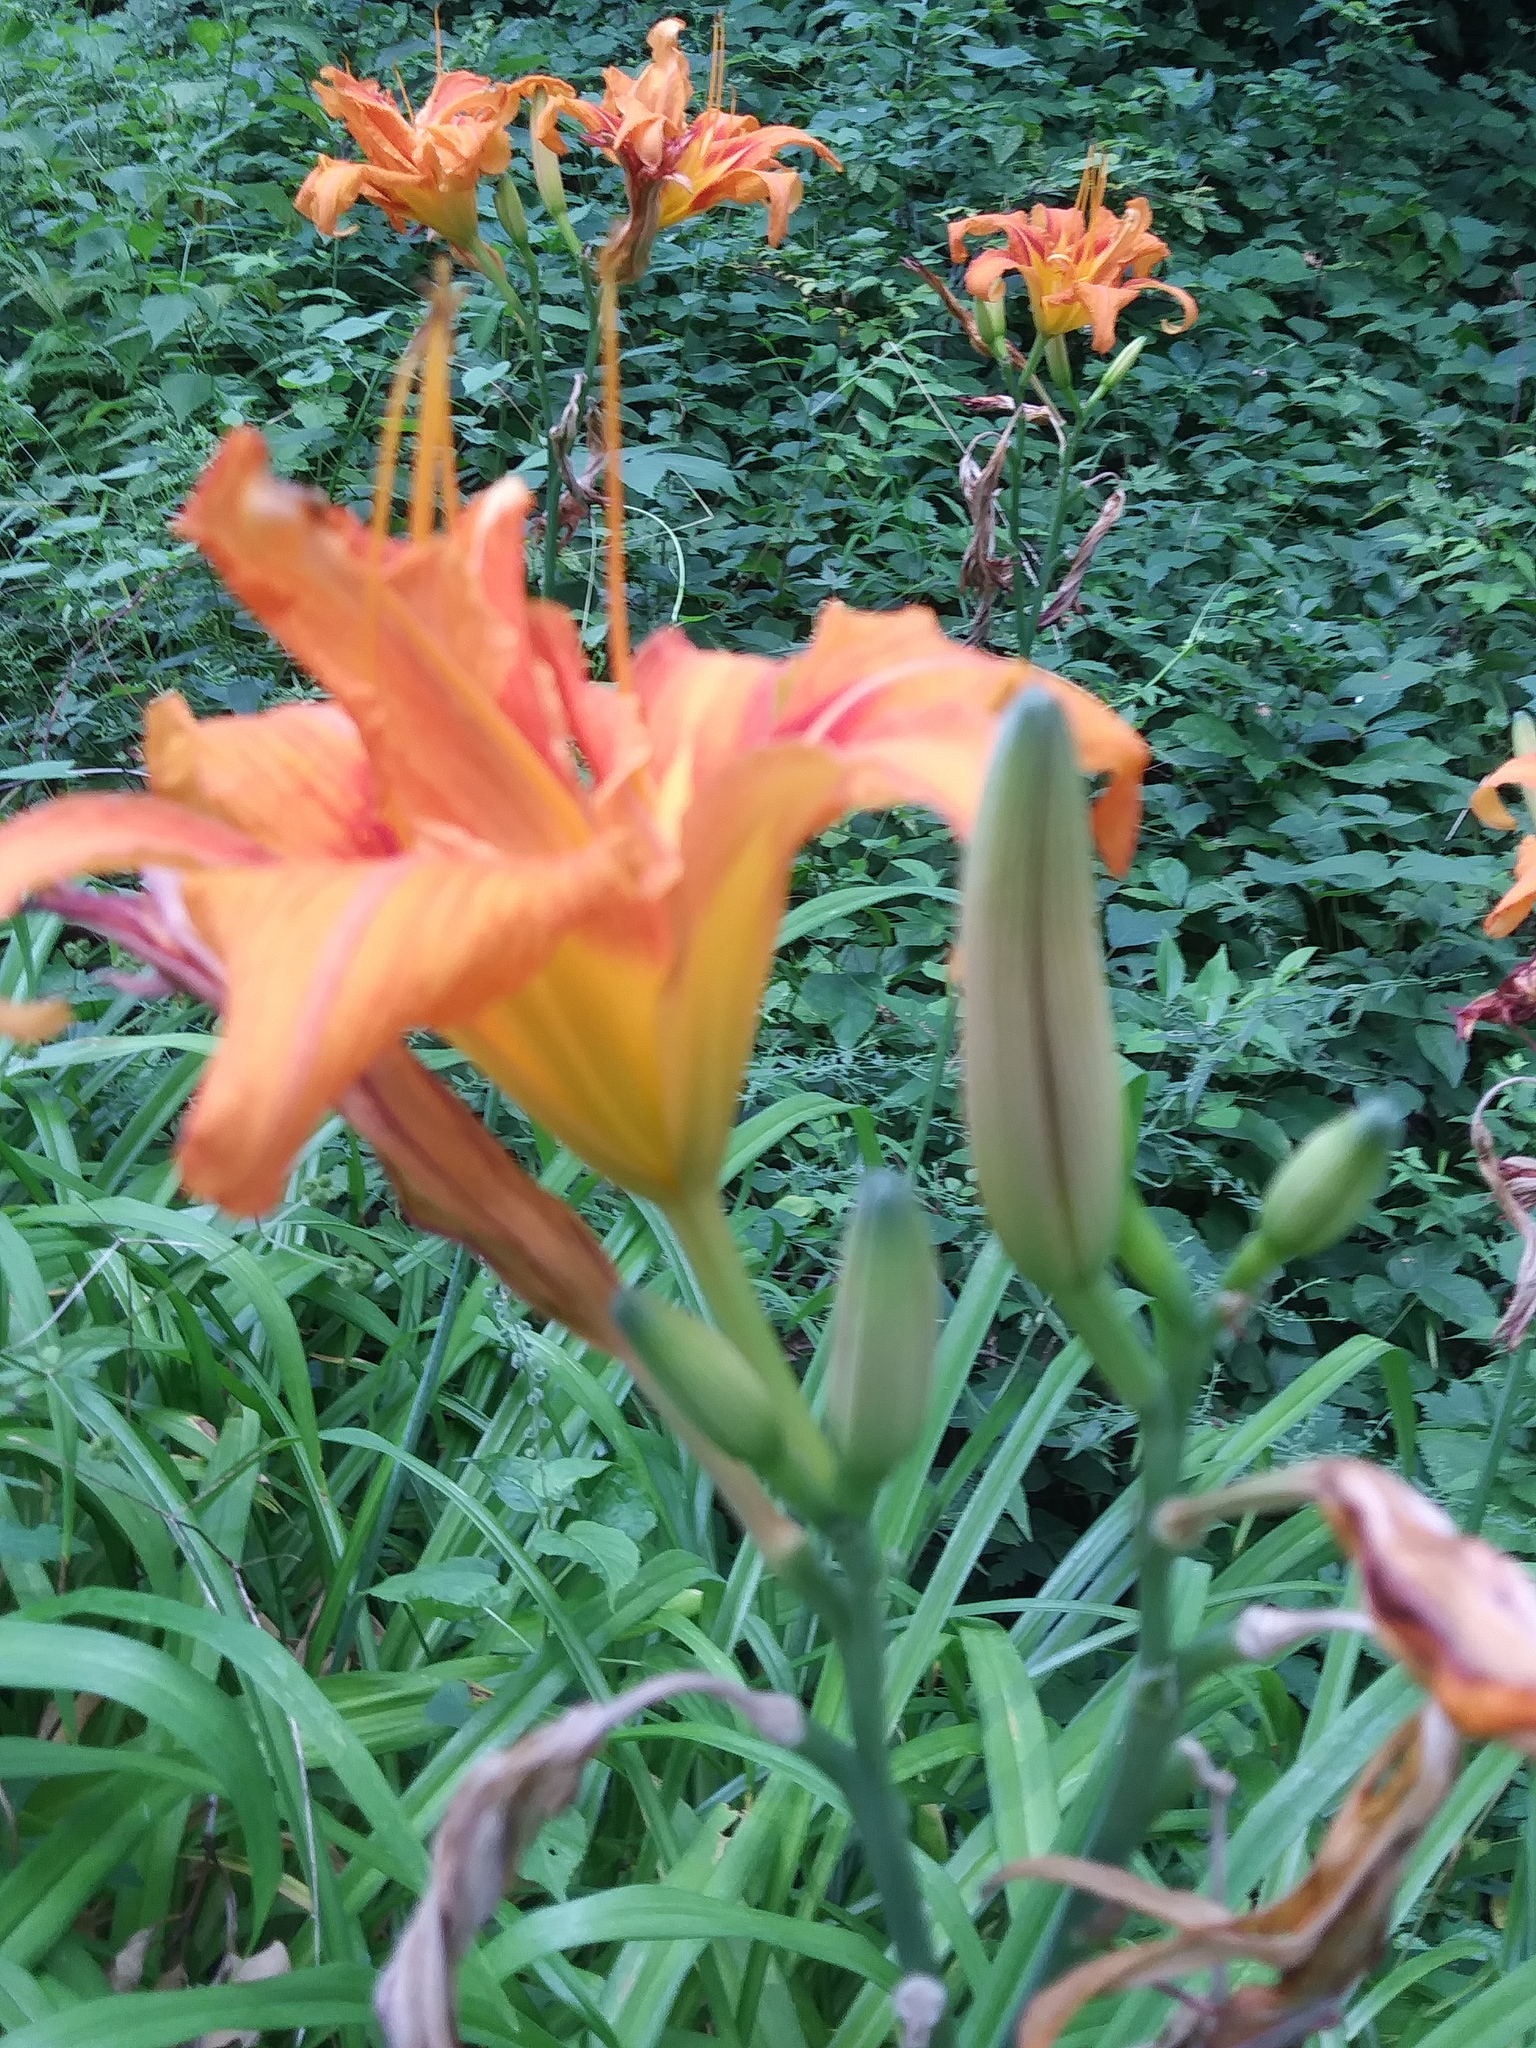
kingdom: Plantae
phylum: Tracheophyta
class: Liliopsida
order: Asparagales
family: Asphodelaceae
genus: Hemerocallis
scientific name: Hemerocallis fulva
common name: Orange day-lily
